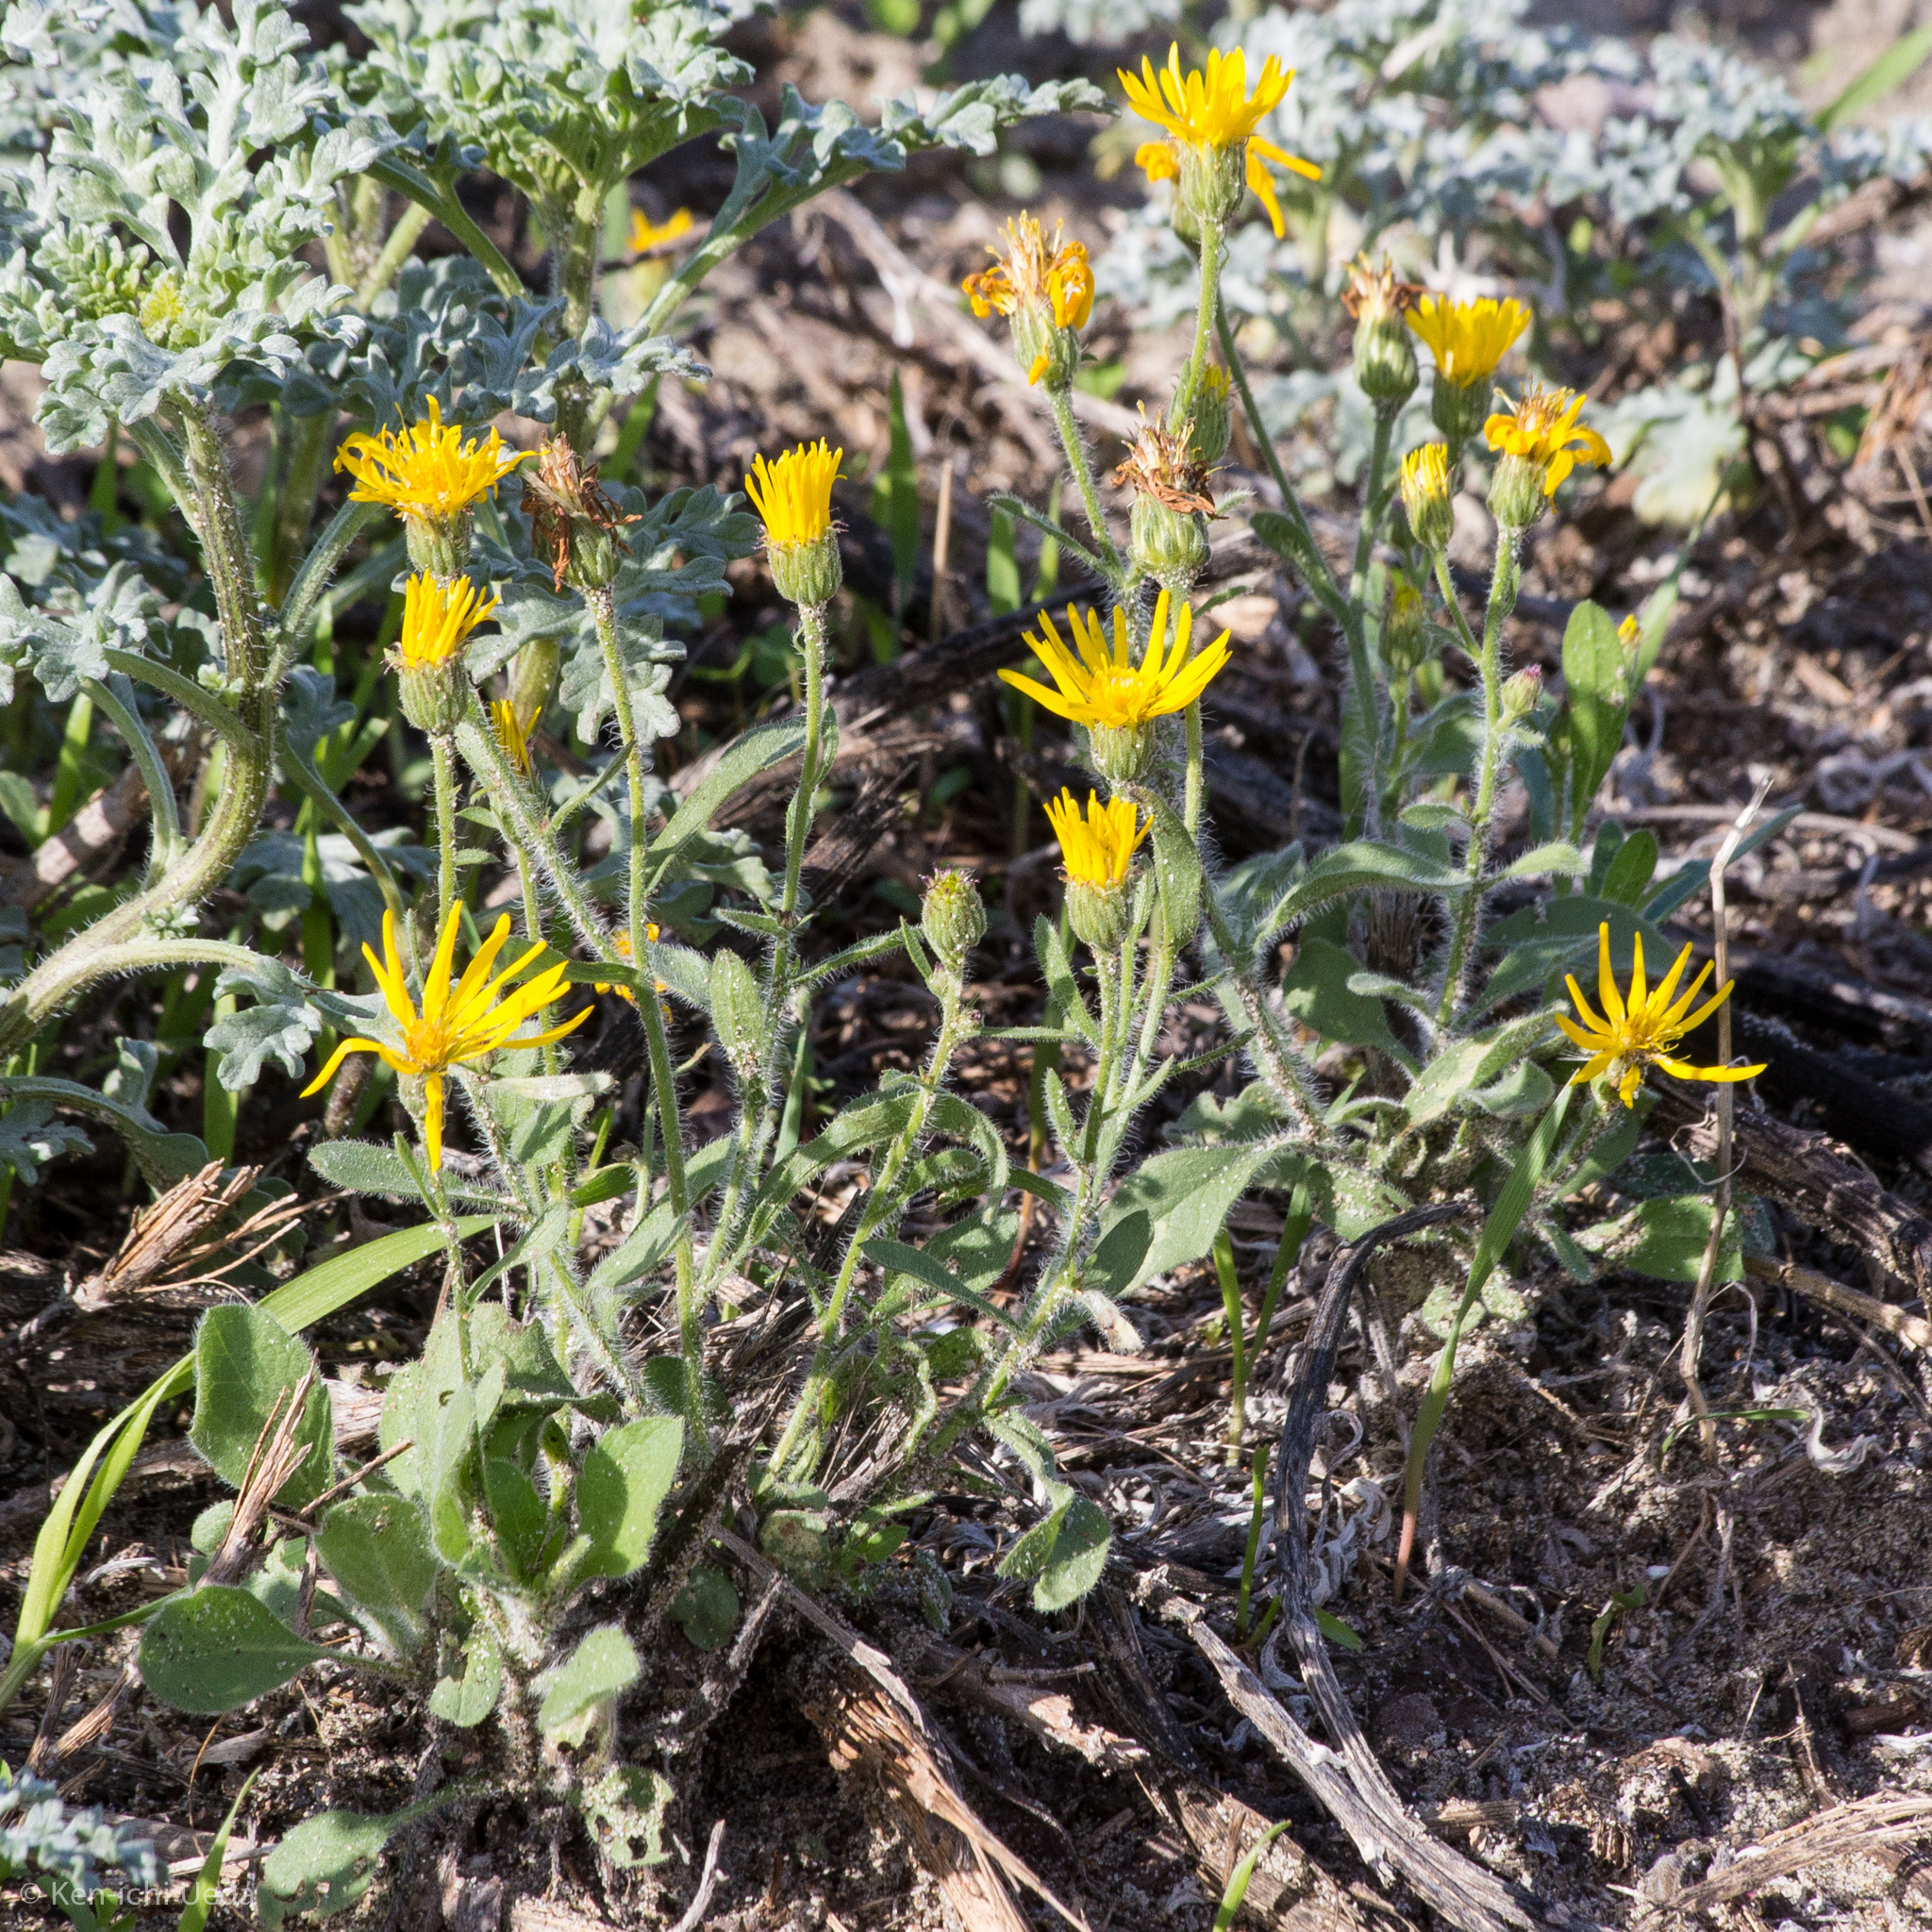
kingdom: Plantae
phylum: Tracheophyta
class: Magnoliopsida
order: Asterales
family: Asteraceae
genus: Heterotheca
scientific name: Heterotheca grandiflora
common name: Telegraphweed
